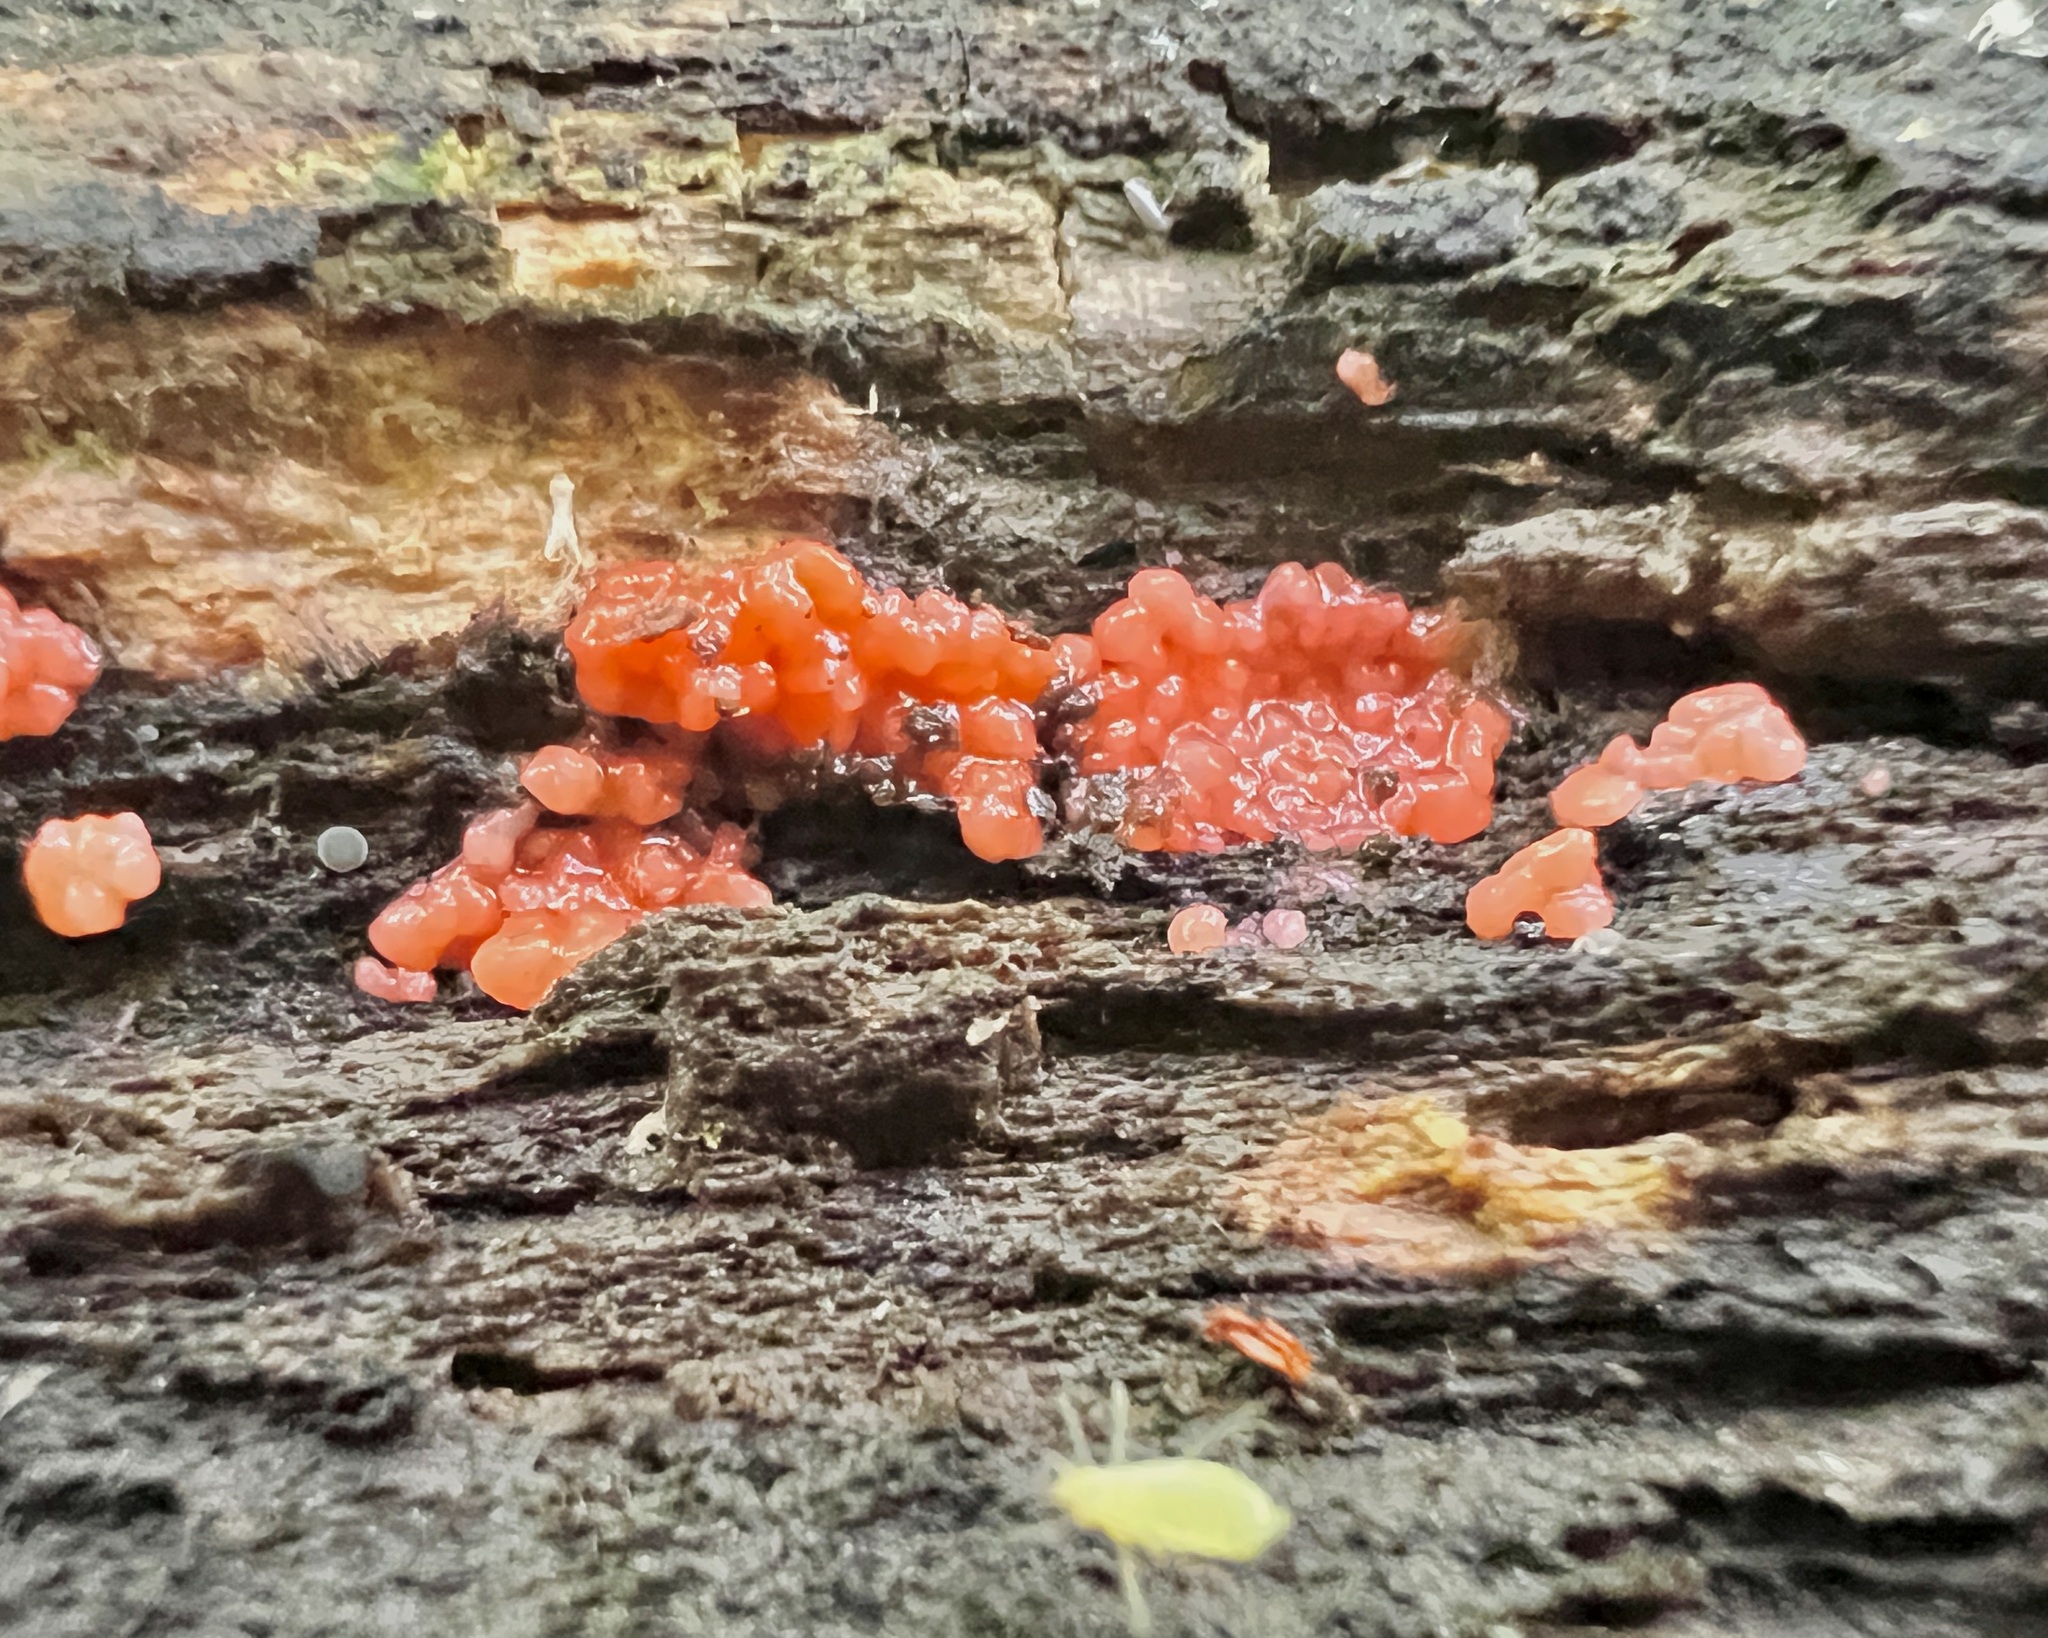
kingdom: Fungi
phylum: Basidiomycota
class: Agaricomycetes
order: Cantharellales
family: Tulasnellaceae
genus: Tulasnella
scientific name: Tulasnella aurantiaca
